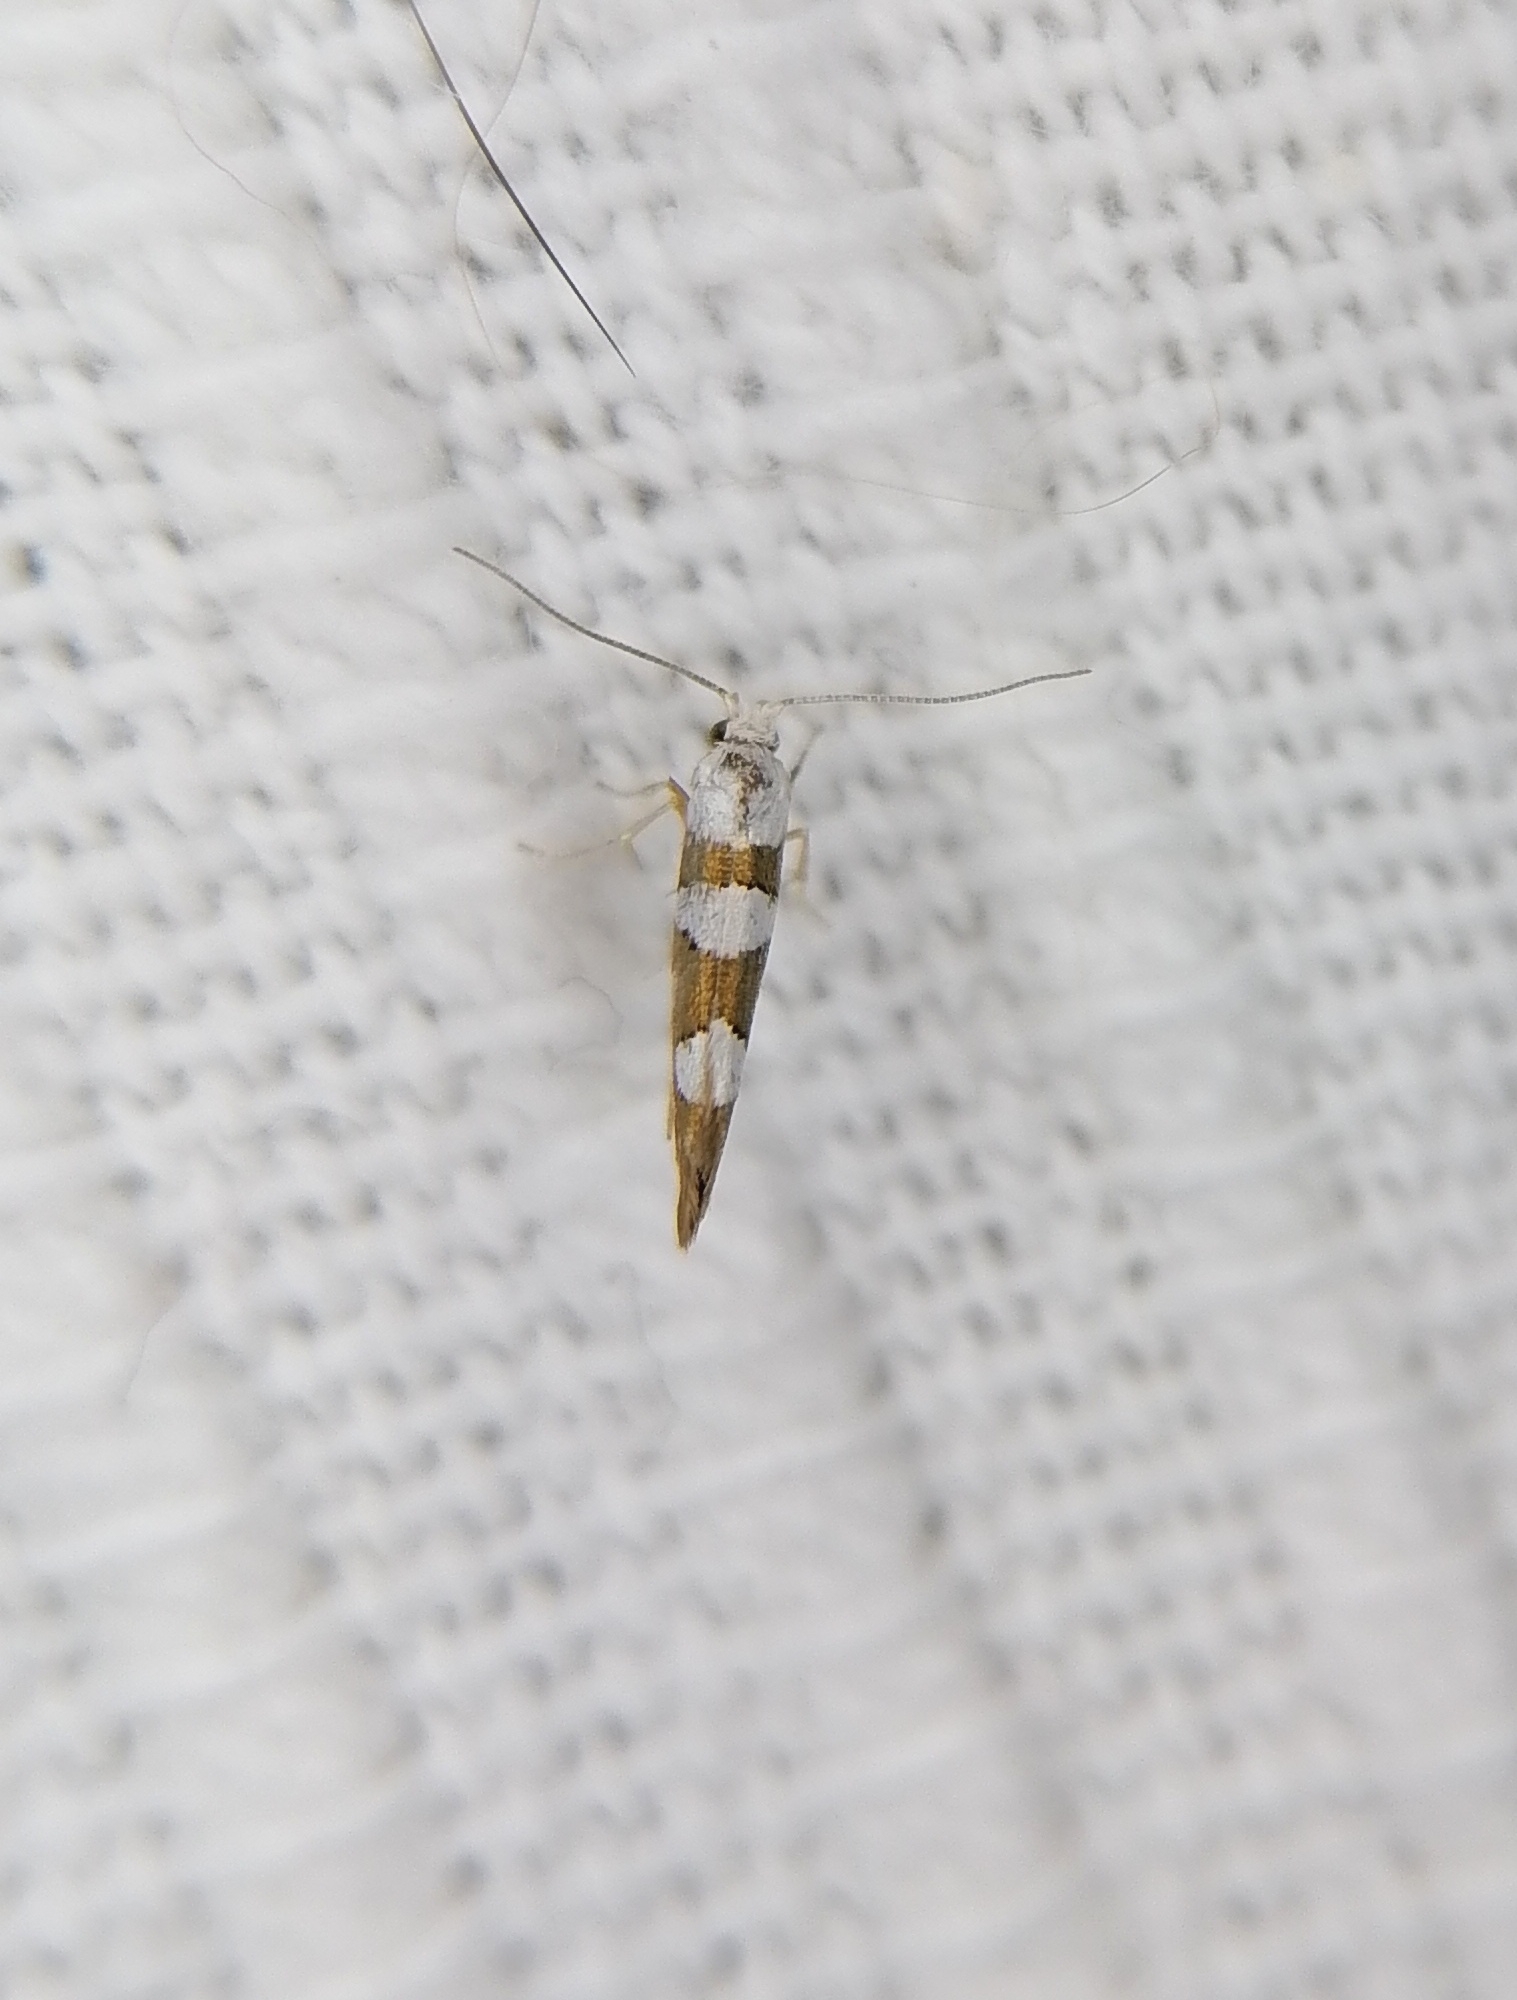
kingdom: Animalia
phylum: Arthropoda
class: Insecta
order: Lepidoptera
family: Argyresthiidae
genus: Argyresthia
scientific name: Argyresthia brockeella
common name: Gold-ribbon argent
